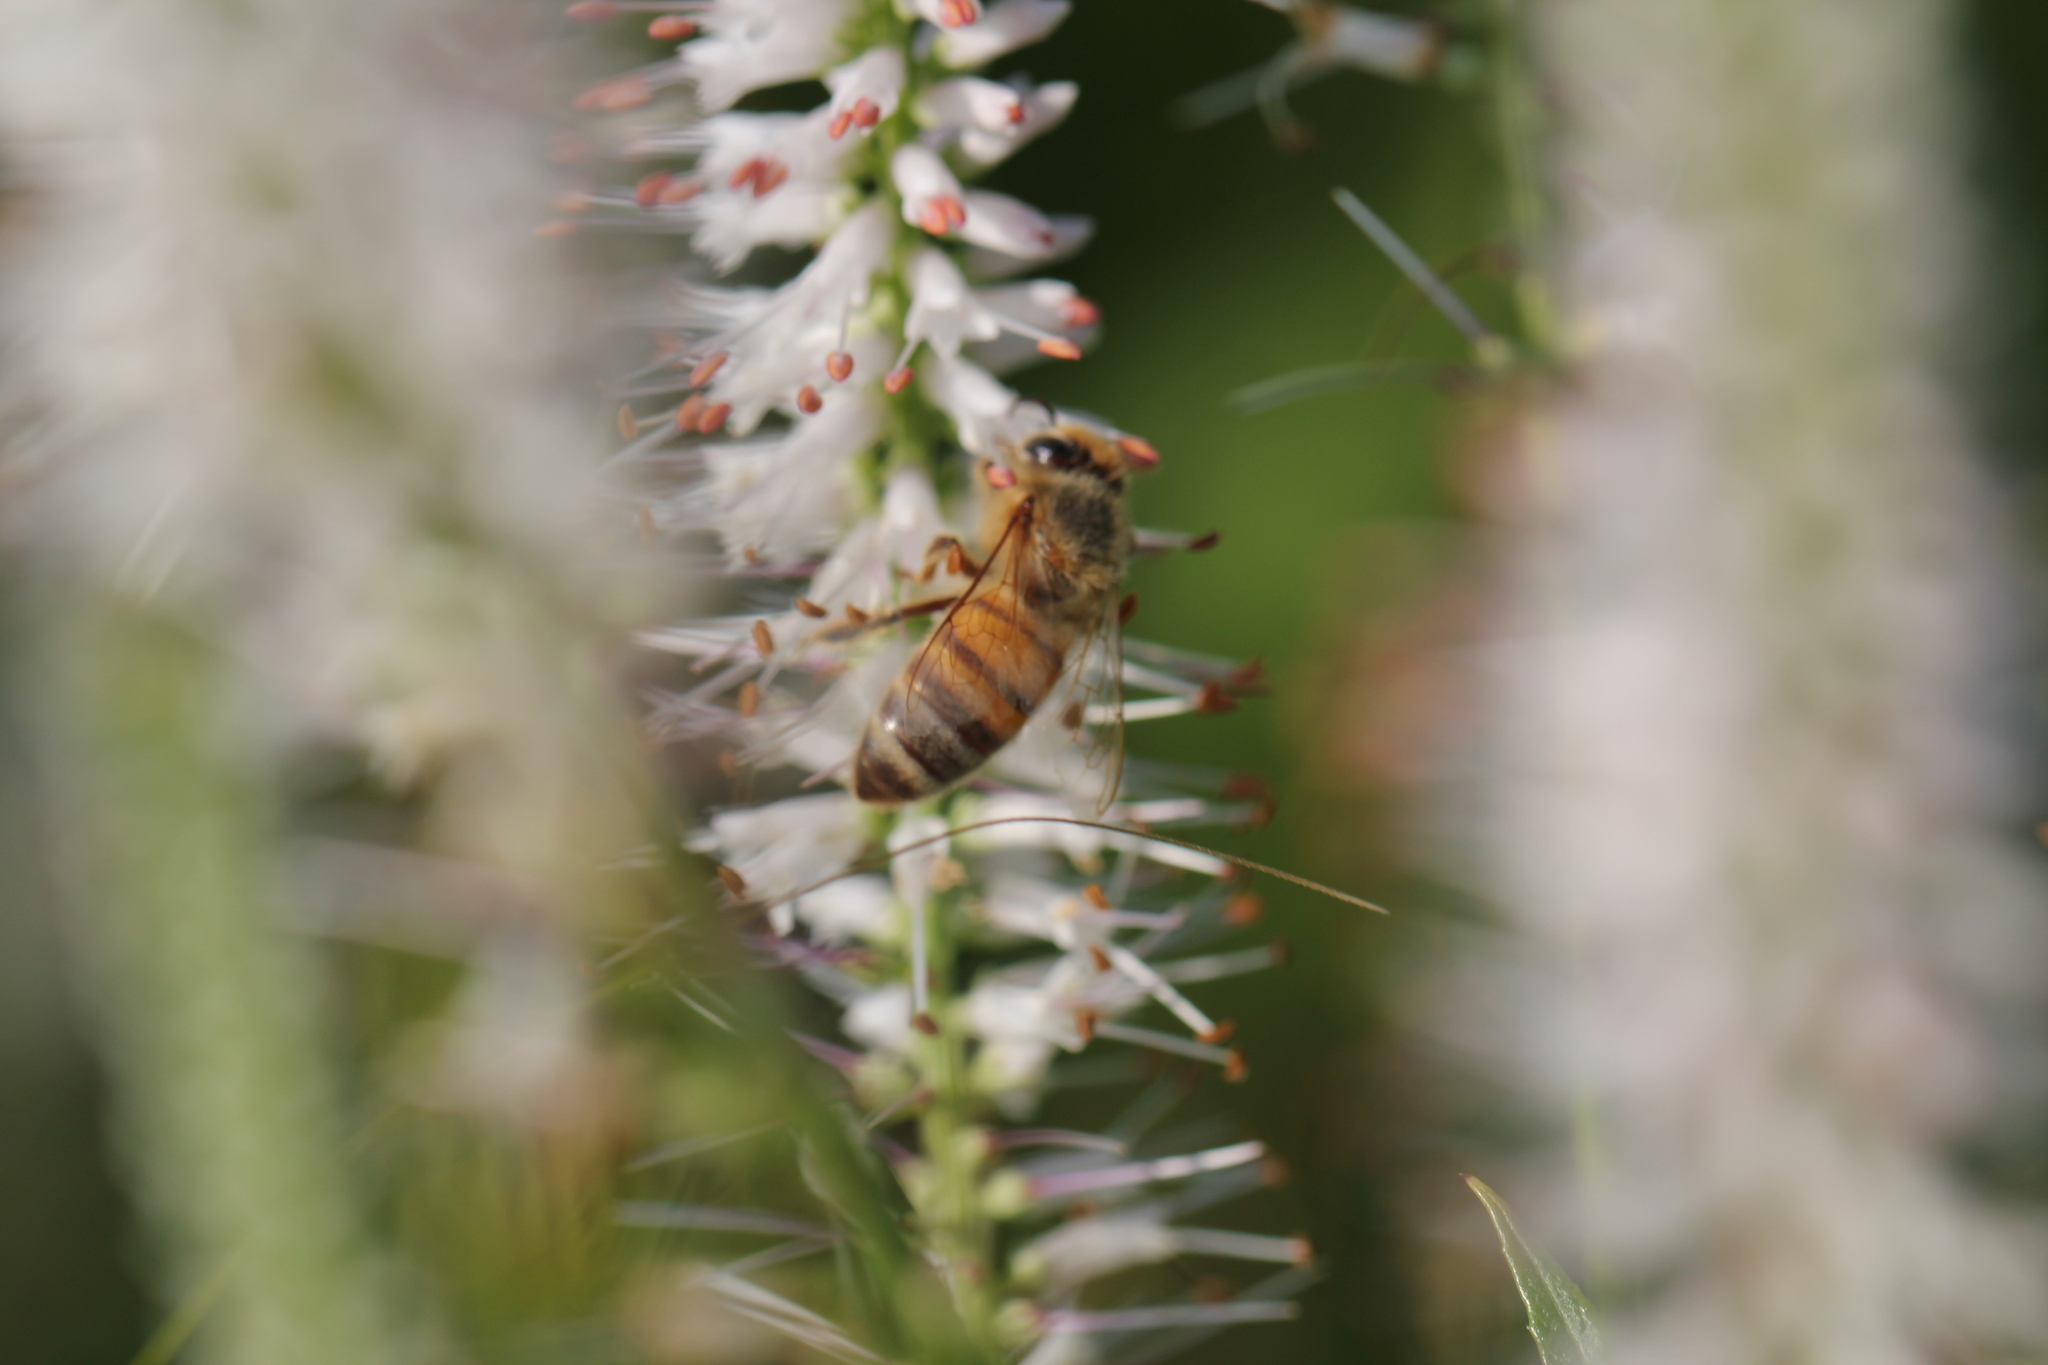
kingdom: Animalia
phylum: Arthropoda
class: Insecta
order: Hymenoptera
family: Apidae
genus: Apis
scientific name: Apis mellifera
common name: Honey bee
